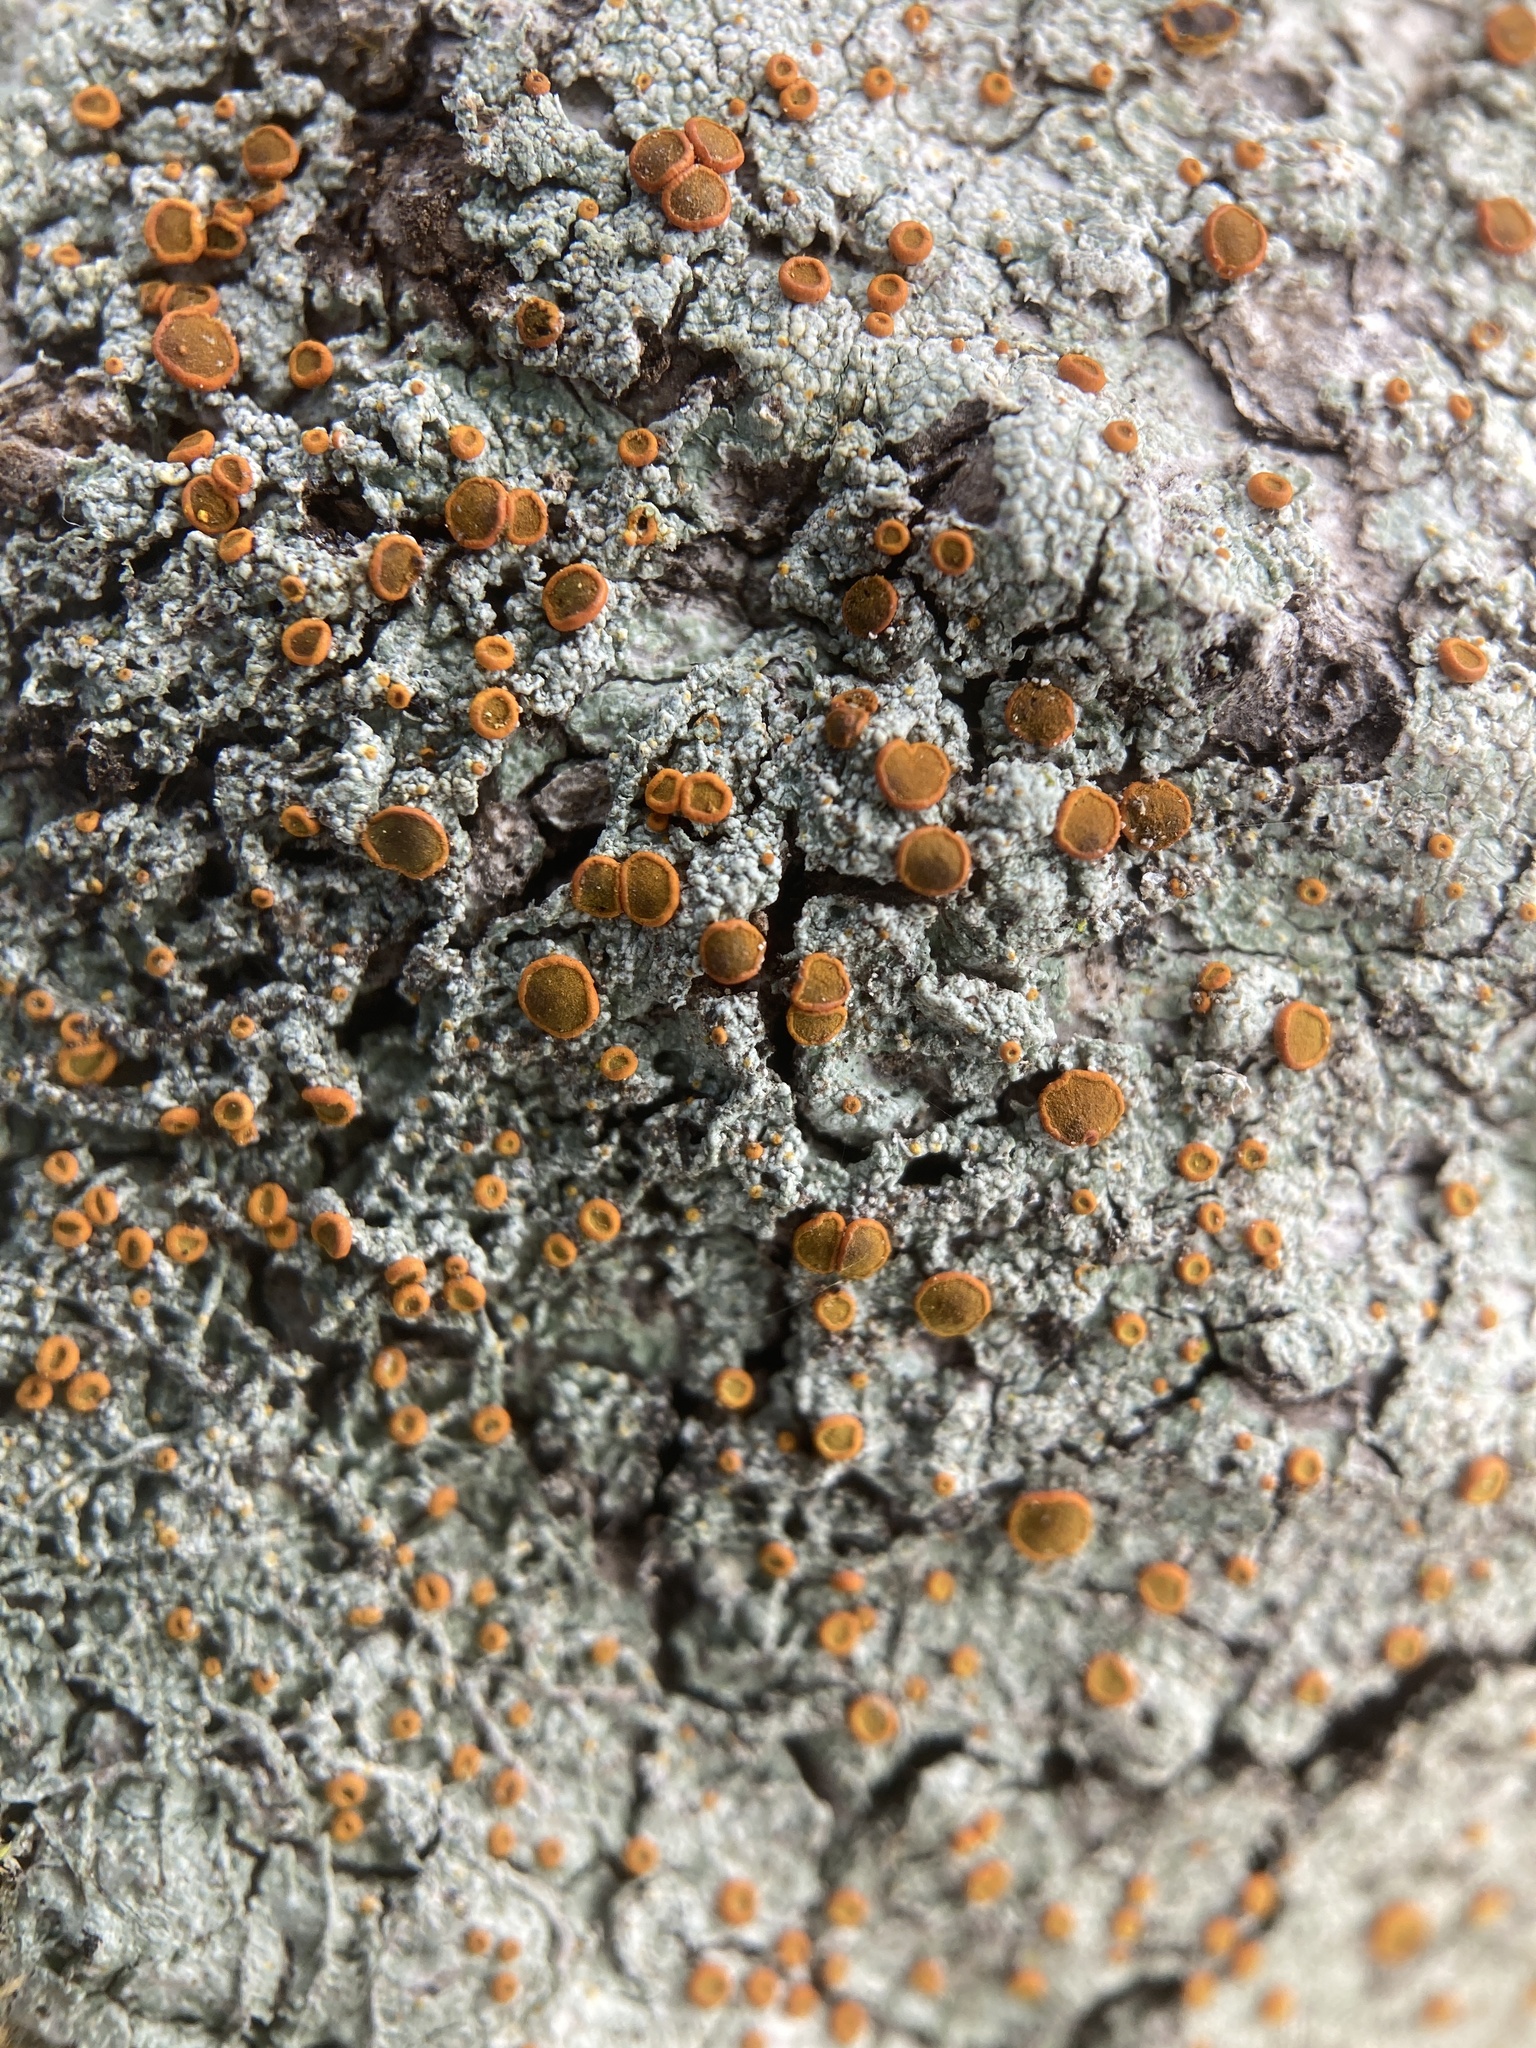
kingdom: Fungi
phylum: Ascomycota
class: Lecanoromycetes
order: Teloschistales
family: Brigantiaeaceae
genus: Brigantiaea
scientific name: Brigantiaea leucoxantha
